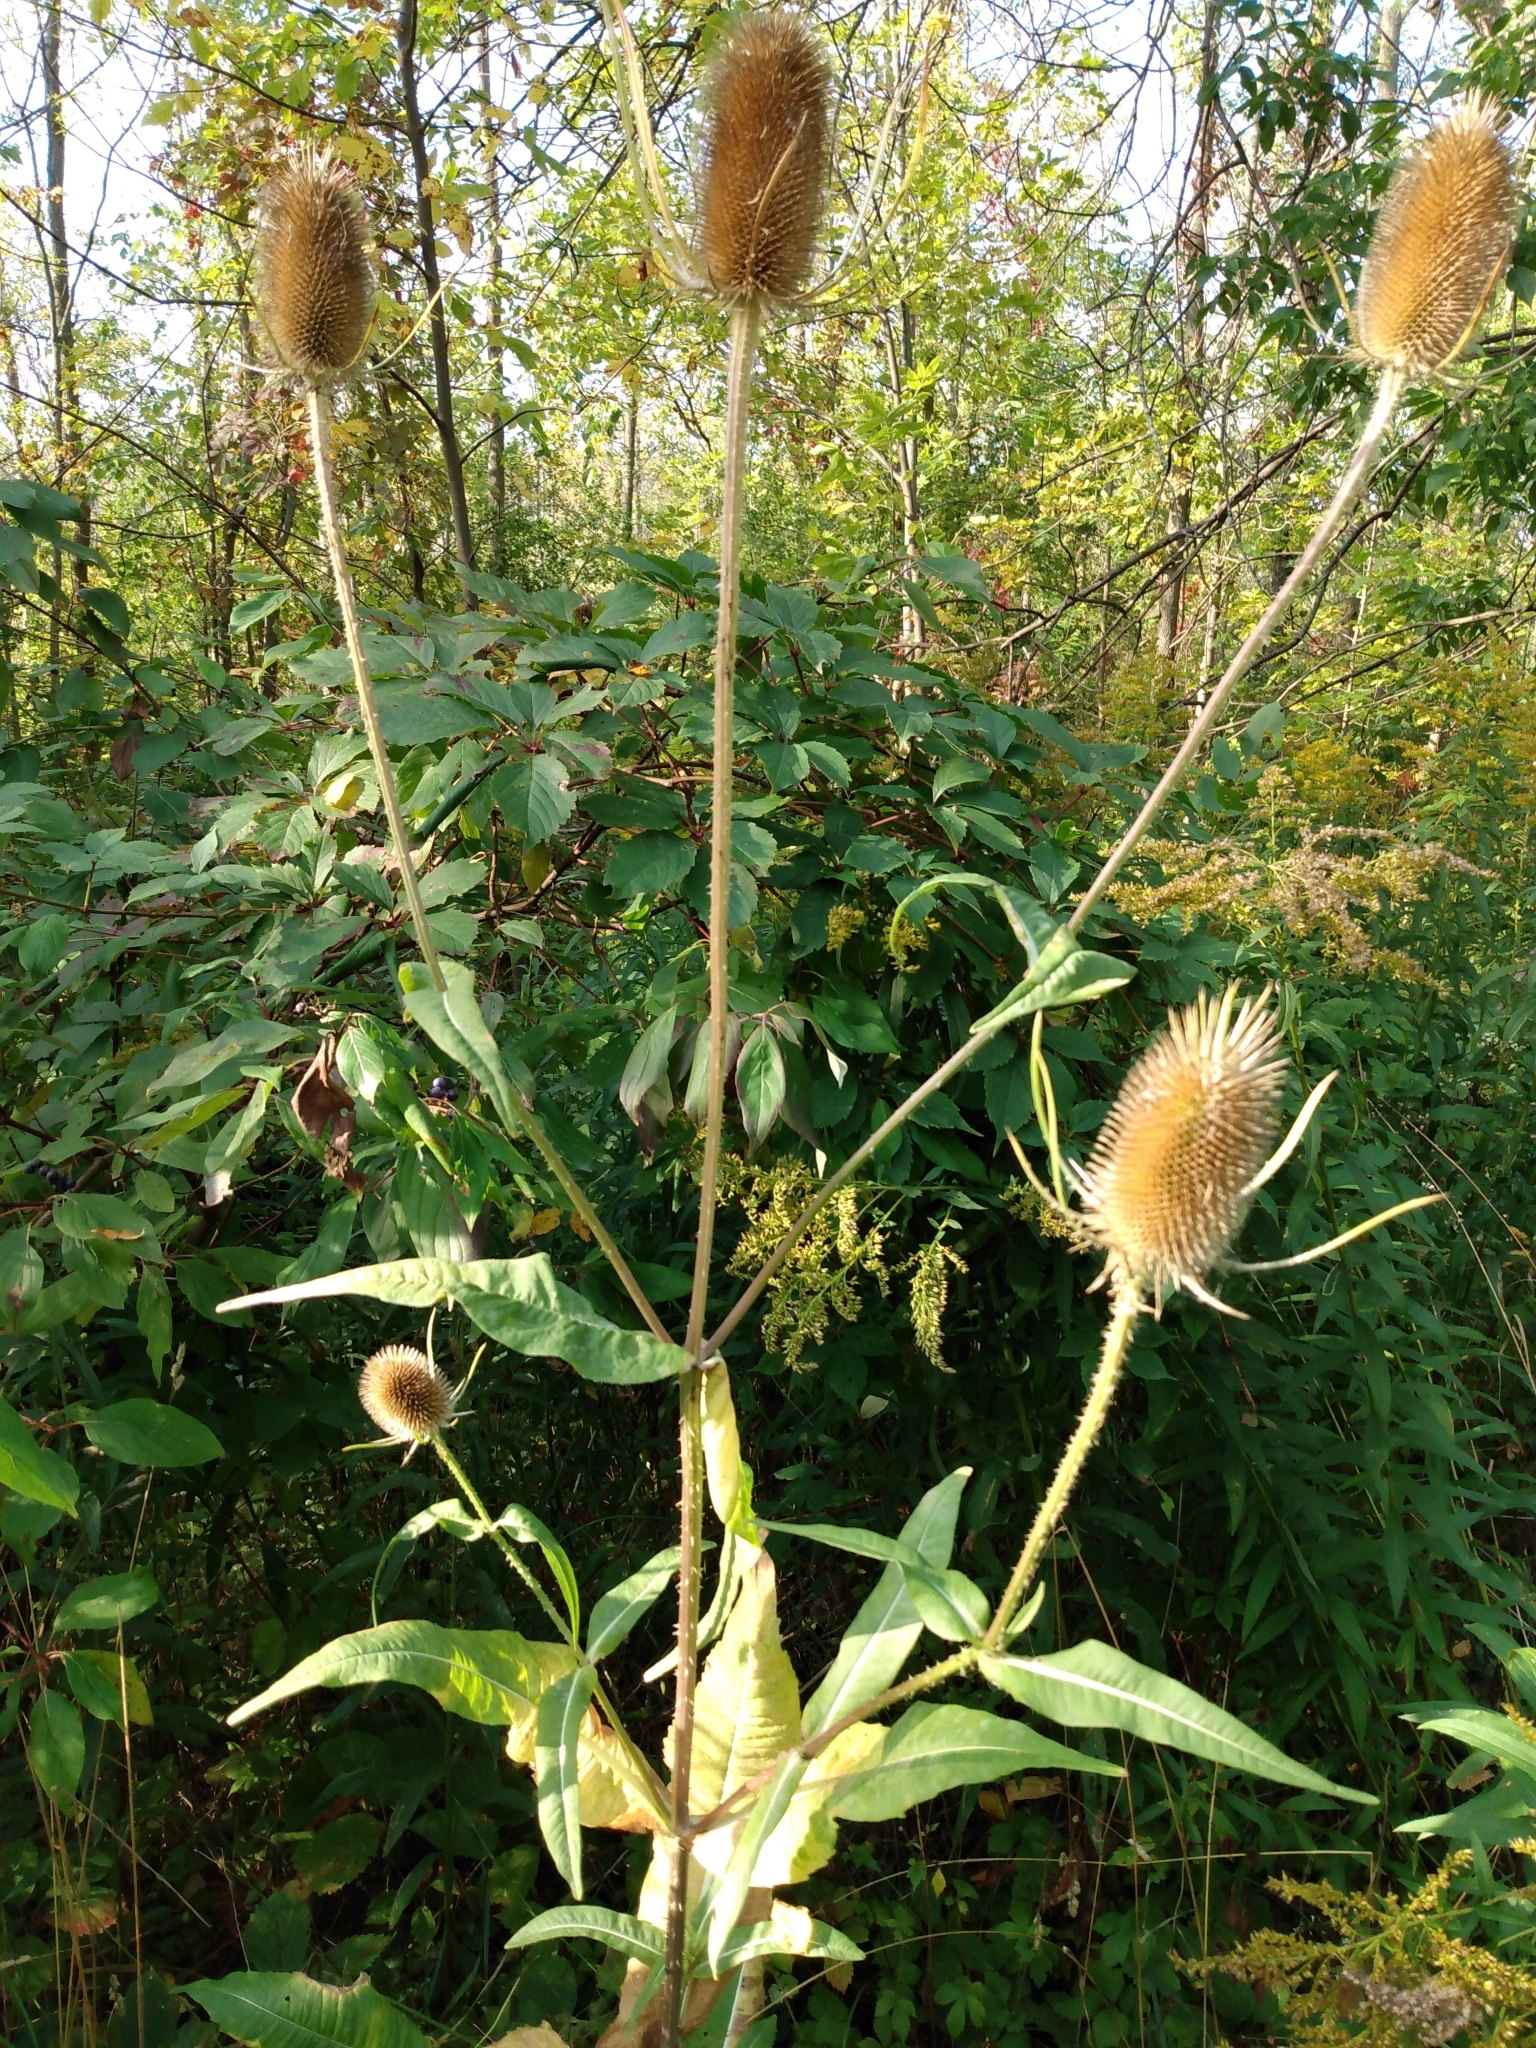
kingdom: Plantae
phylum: Tracheophyta
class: Magnoliopsida
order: Dipsacales
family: Caprifoliaceae
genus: Dipsacus
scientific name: Dipsacus fullonum
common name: Teasel
